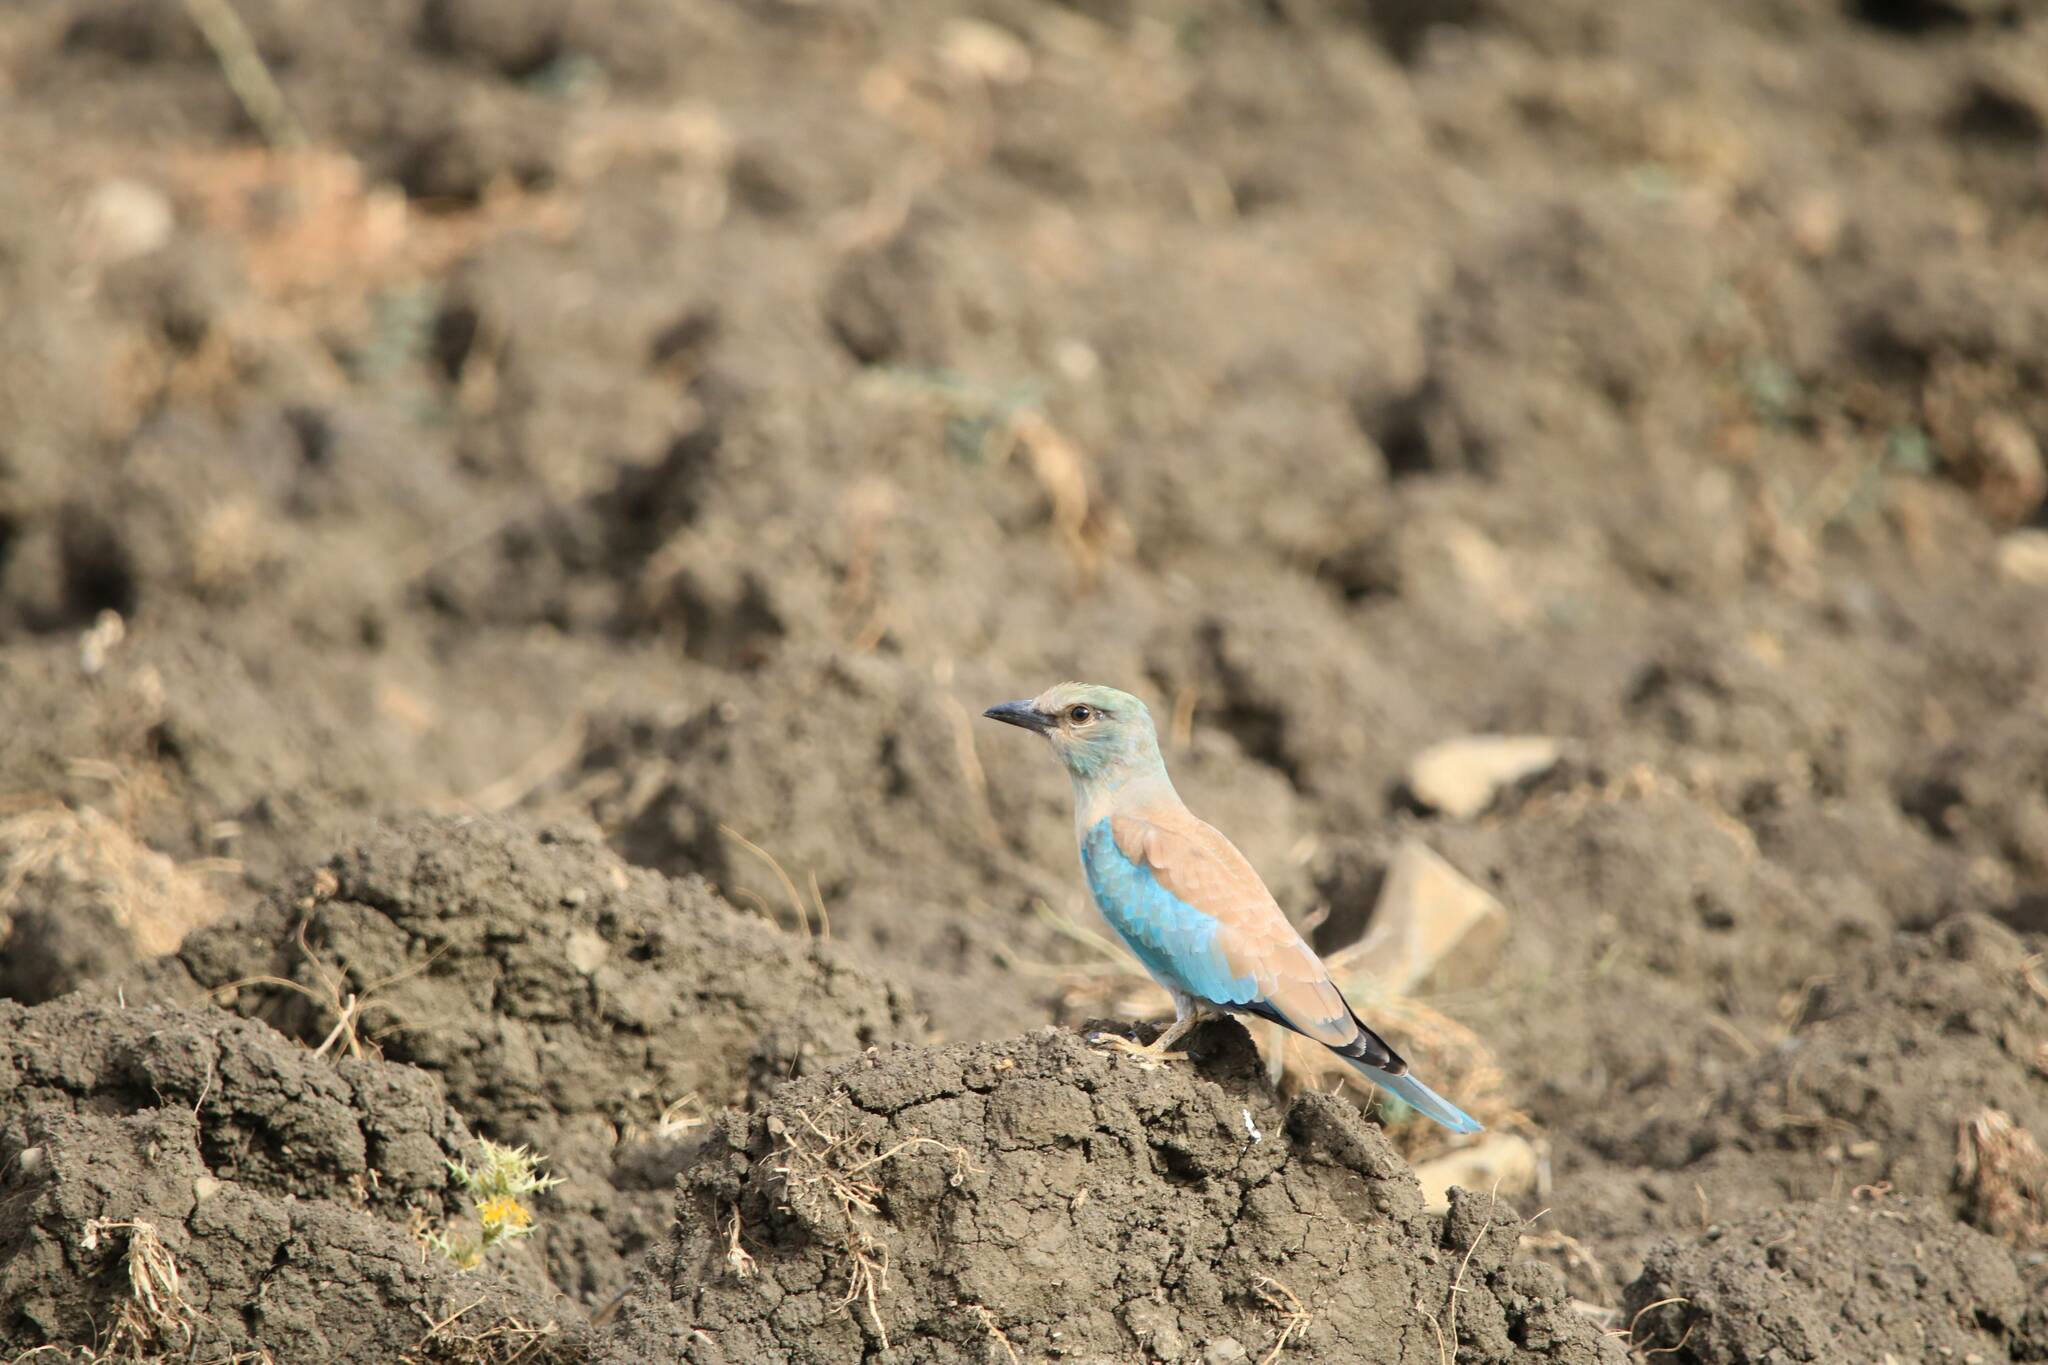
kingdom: Animalia
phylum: Chordata
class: Aves
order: Coraciiformes
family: Coraciidae
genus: Coracias
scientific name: Coracias garrulus
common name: European roller
